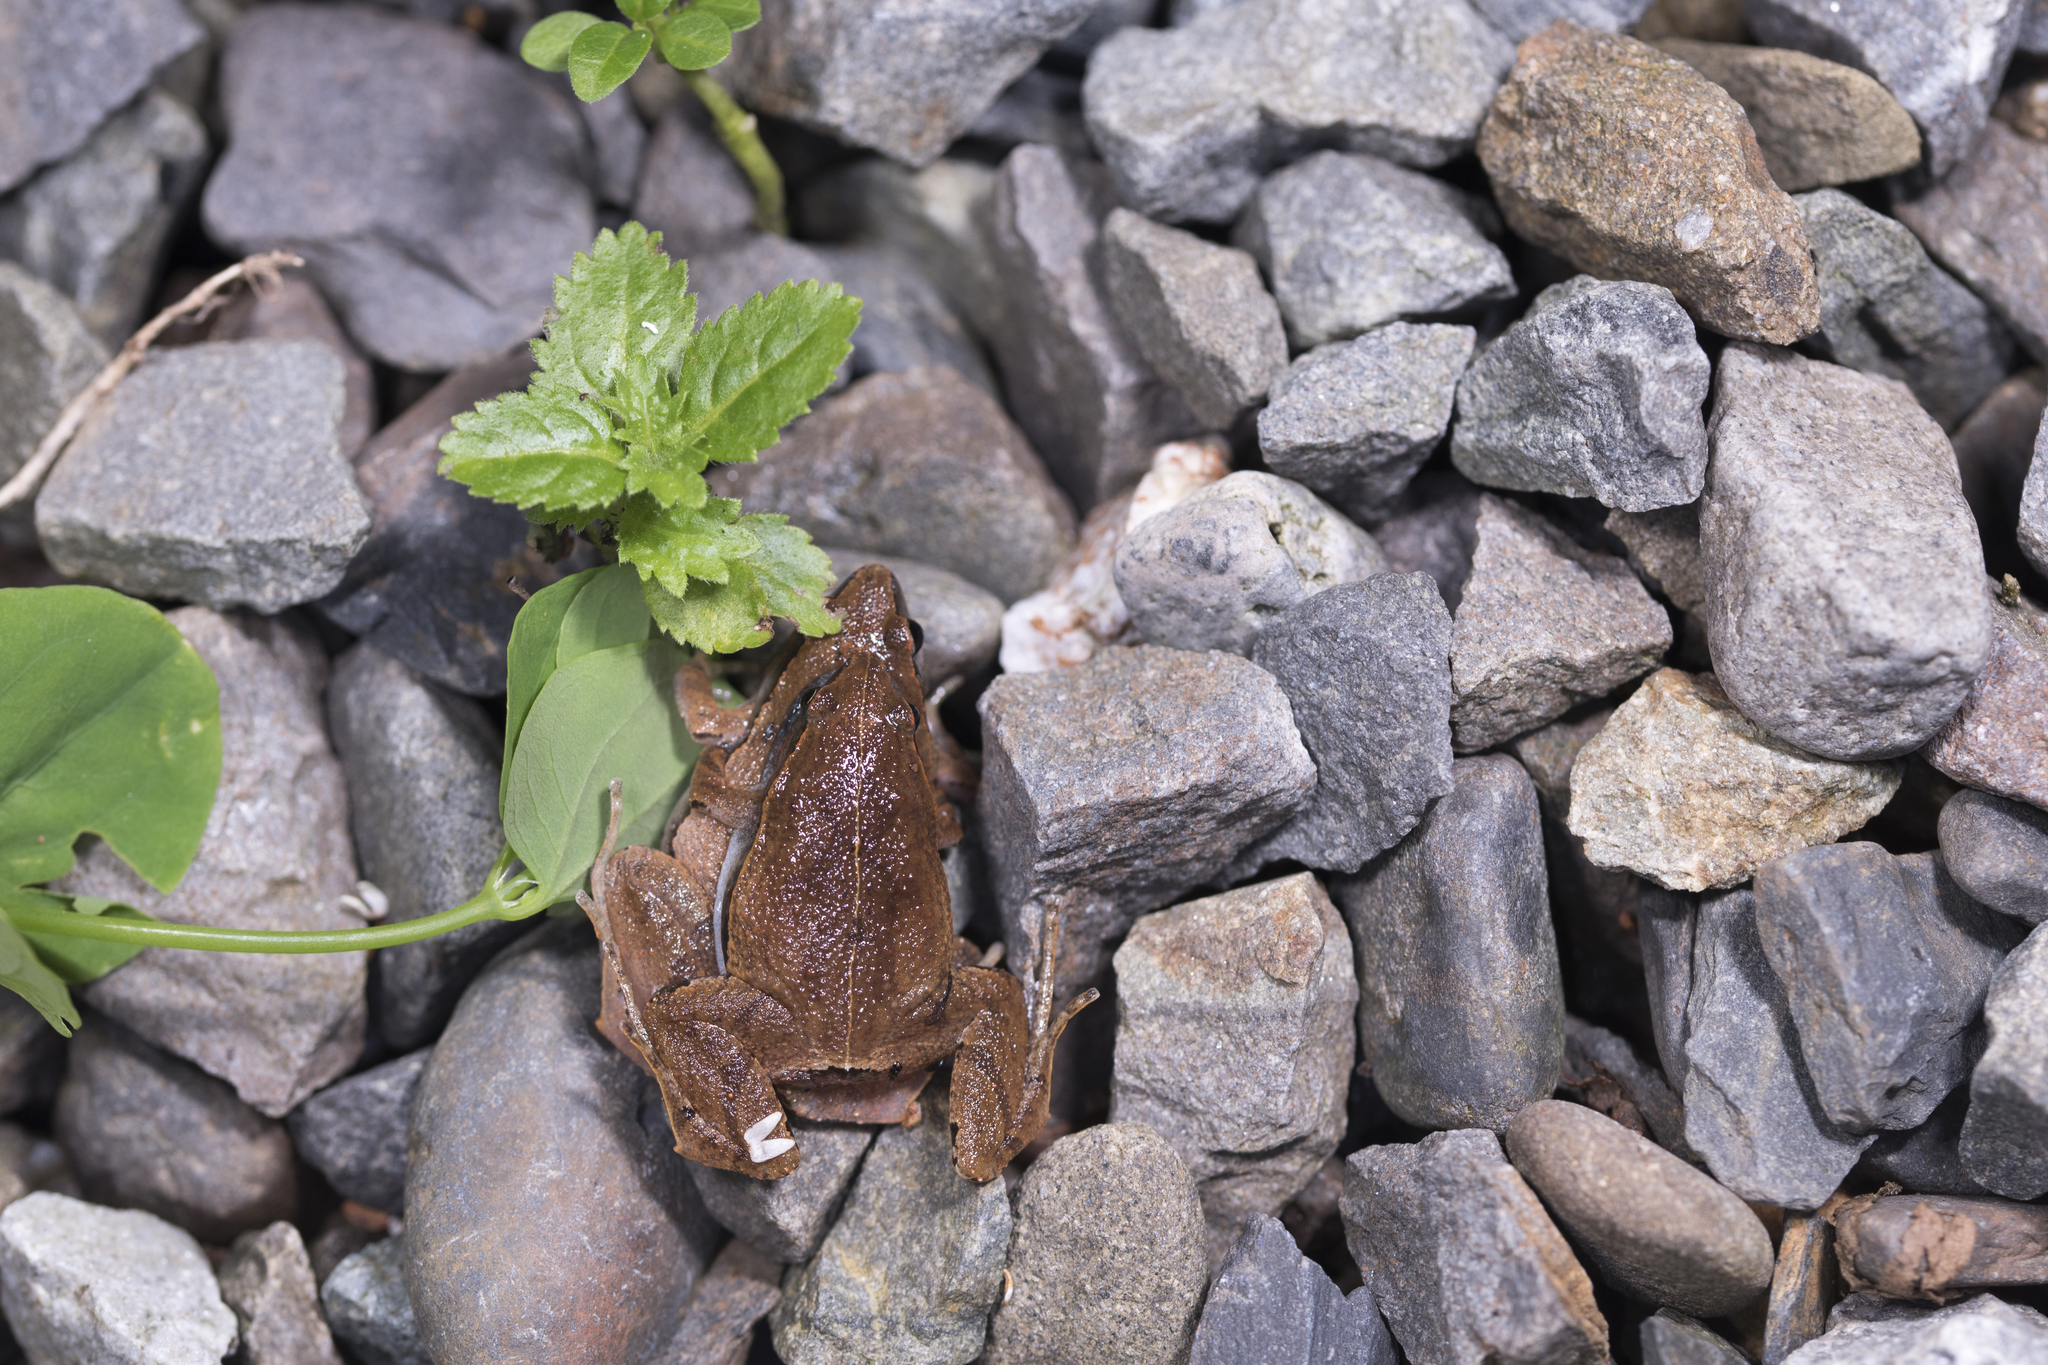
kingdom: Animalia
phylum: Chordata
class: Amphibia
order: Anura
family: Microhylidae
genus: Microhyla
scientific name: Microhyla heymonsi
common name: Taiwan rice frog,dark sided chorus frog
